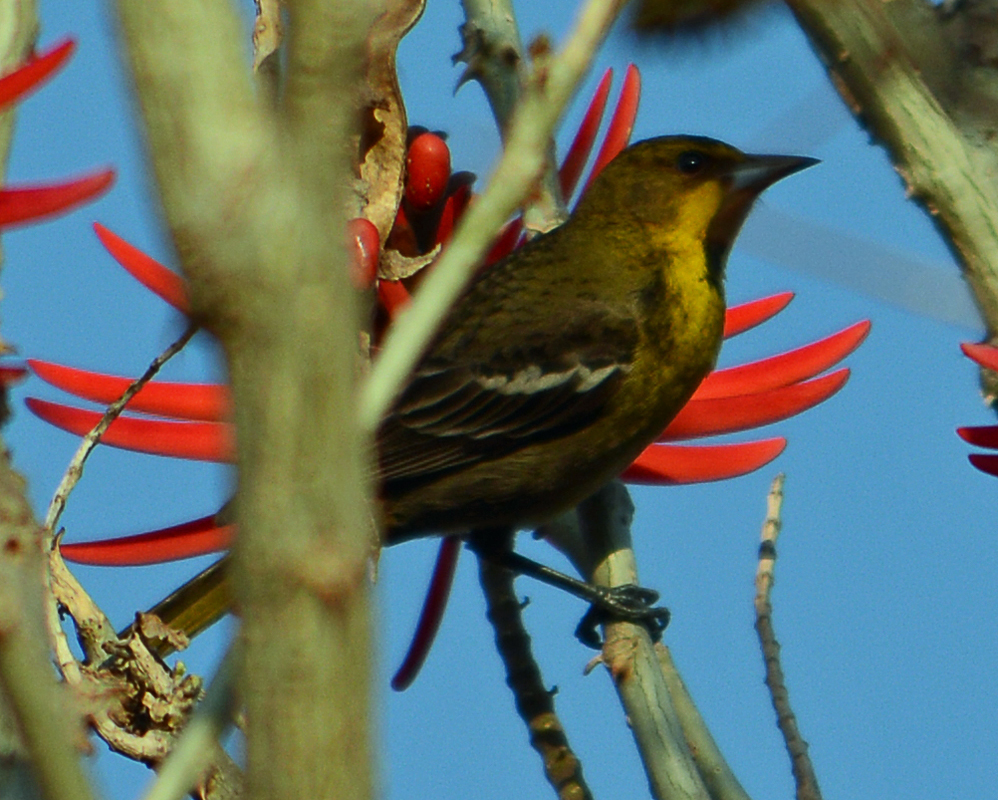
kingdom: Animalia
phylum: Chordata
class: Aves
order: Passeriformes
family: Icteridae
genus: Icterus
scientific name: Icterus abeillei
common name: Black-backed oriole
